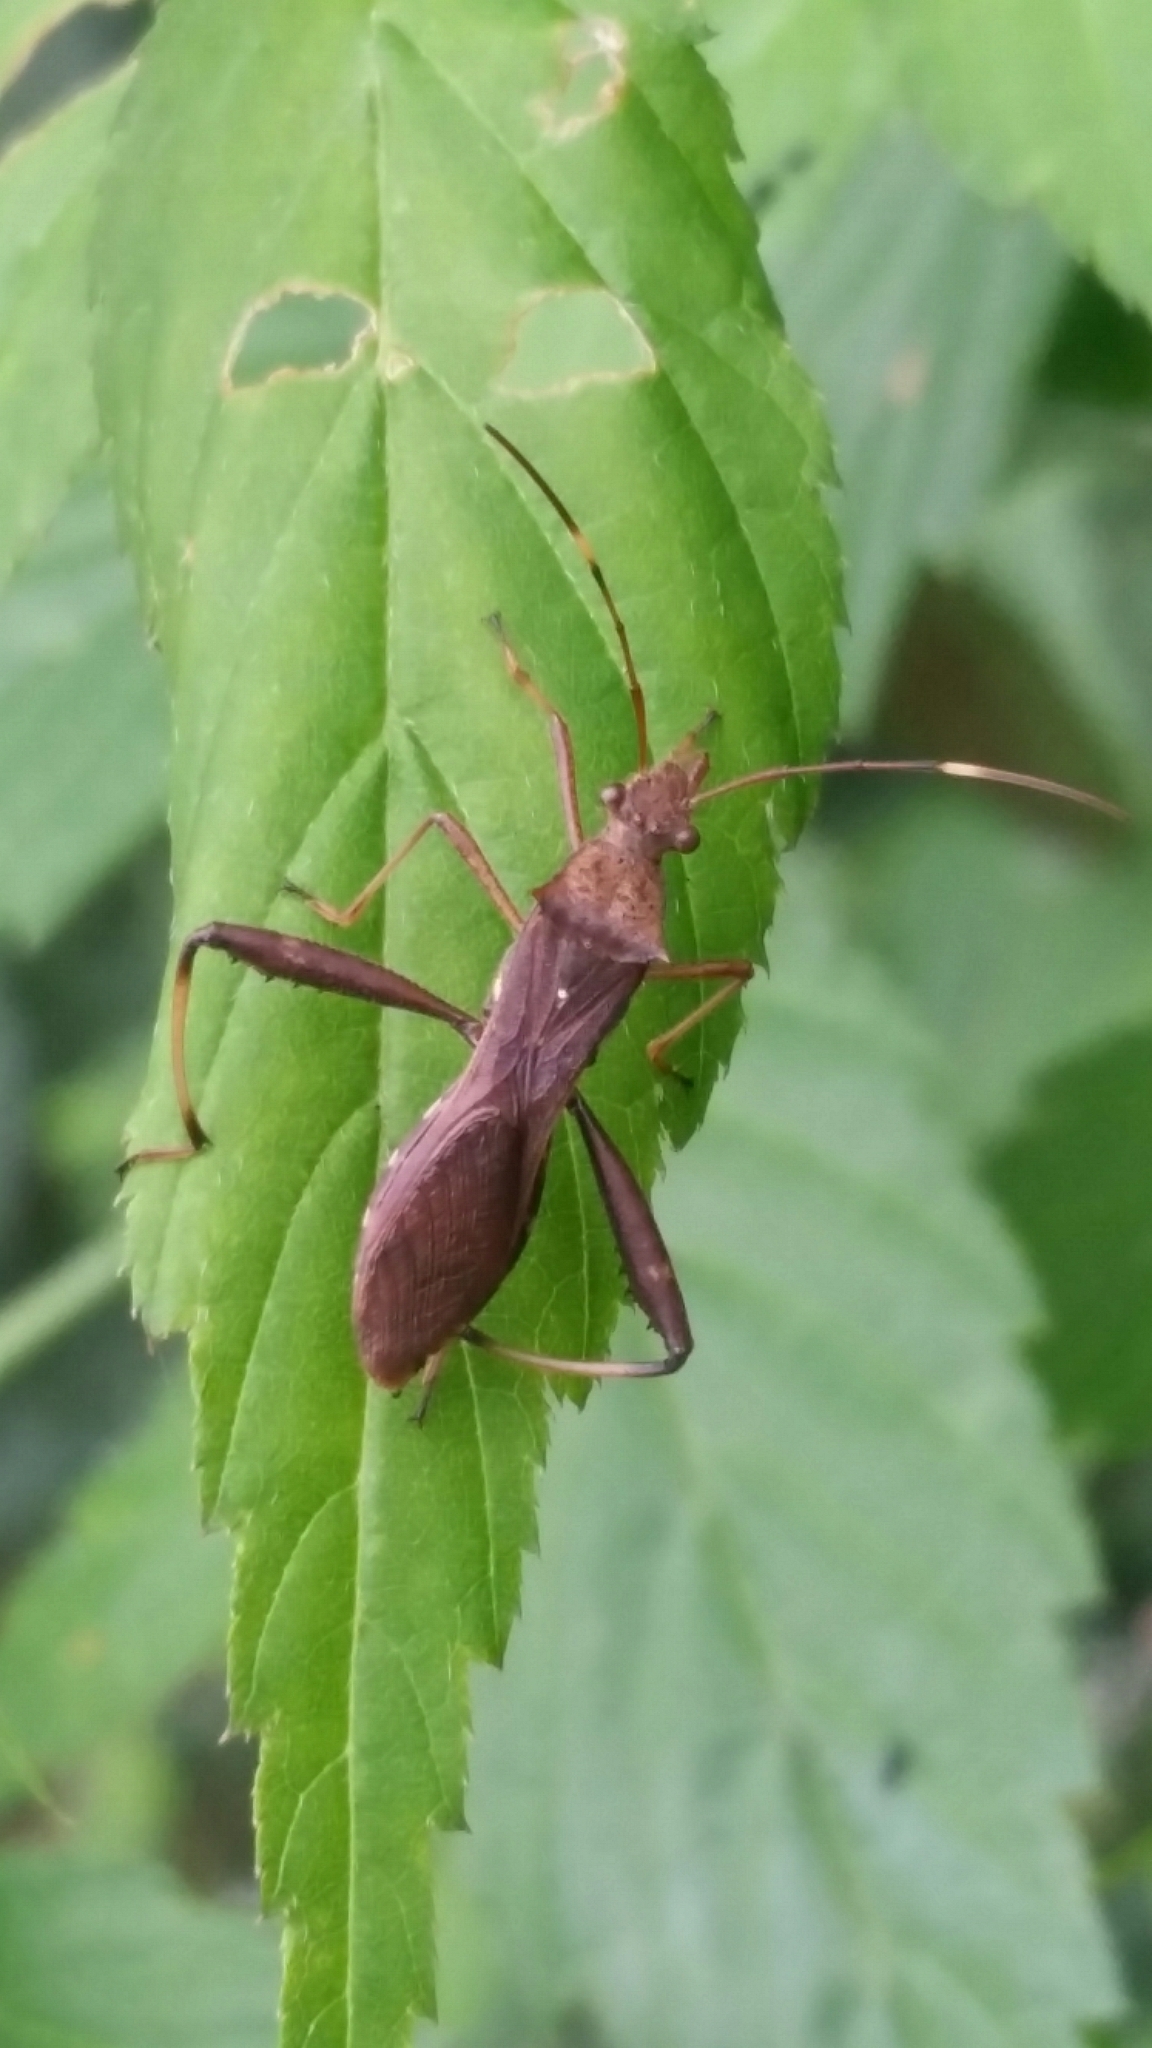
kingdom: Animalia
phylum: Arthropoda
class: Insecta
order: Hemiptera
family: Alydidae
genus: Riptortus
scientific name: Riptortus pedestris
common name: Bean bug
